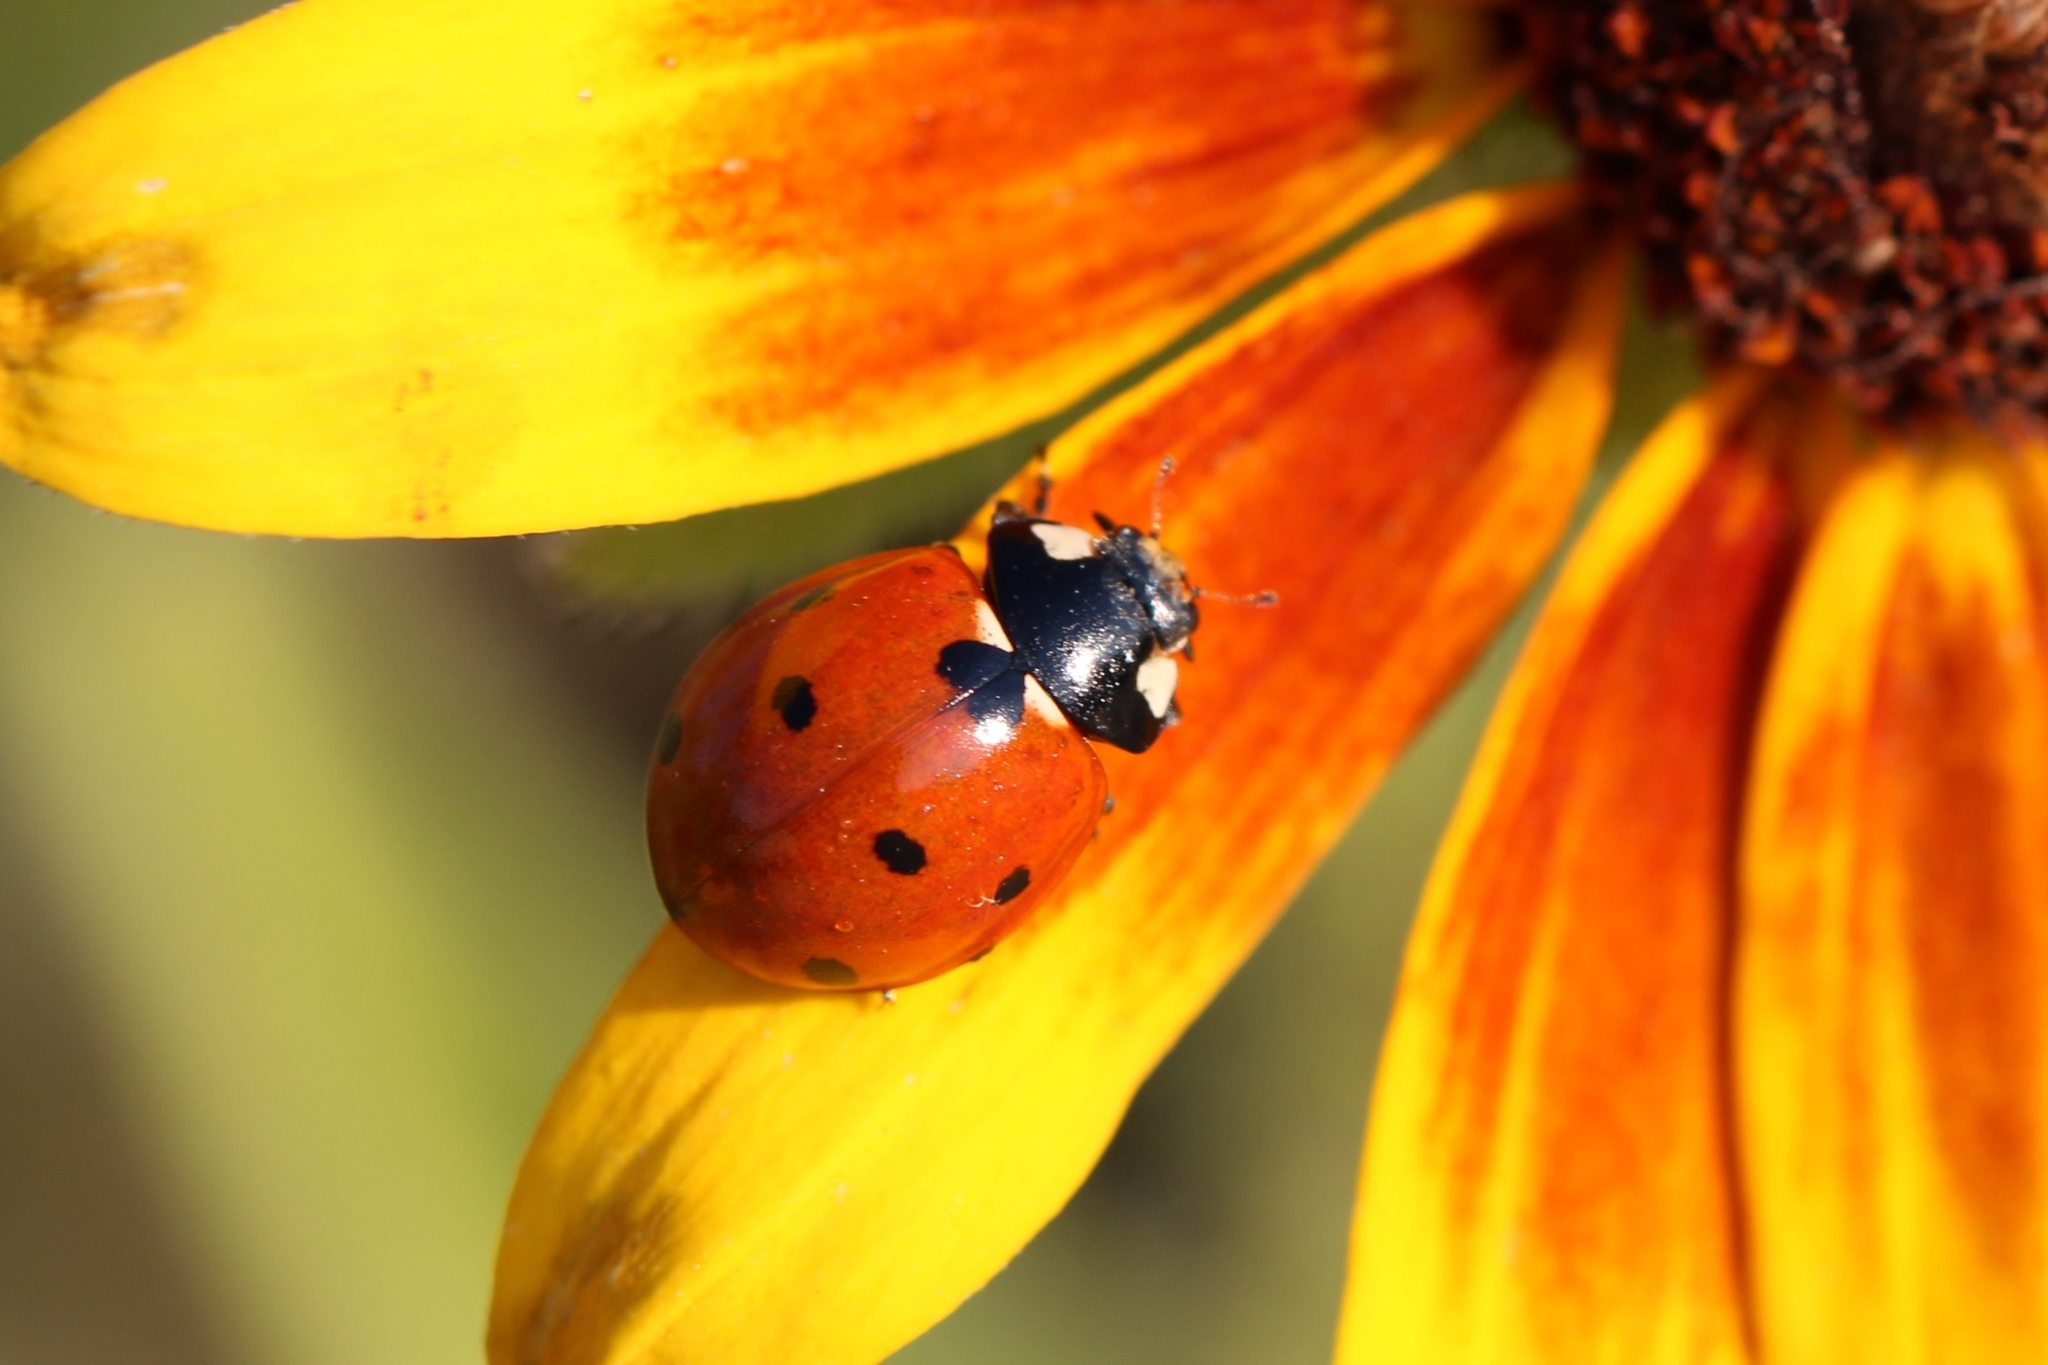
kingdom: Animalia
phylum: Arthropoda
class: Insecta
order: Coleoptera
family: Coccinellidae
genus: Coccinella
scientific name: Coccinella septempunctata
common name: Sevenspotted lady beetle
